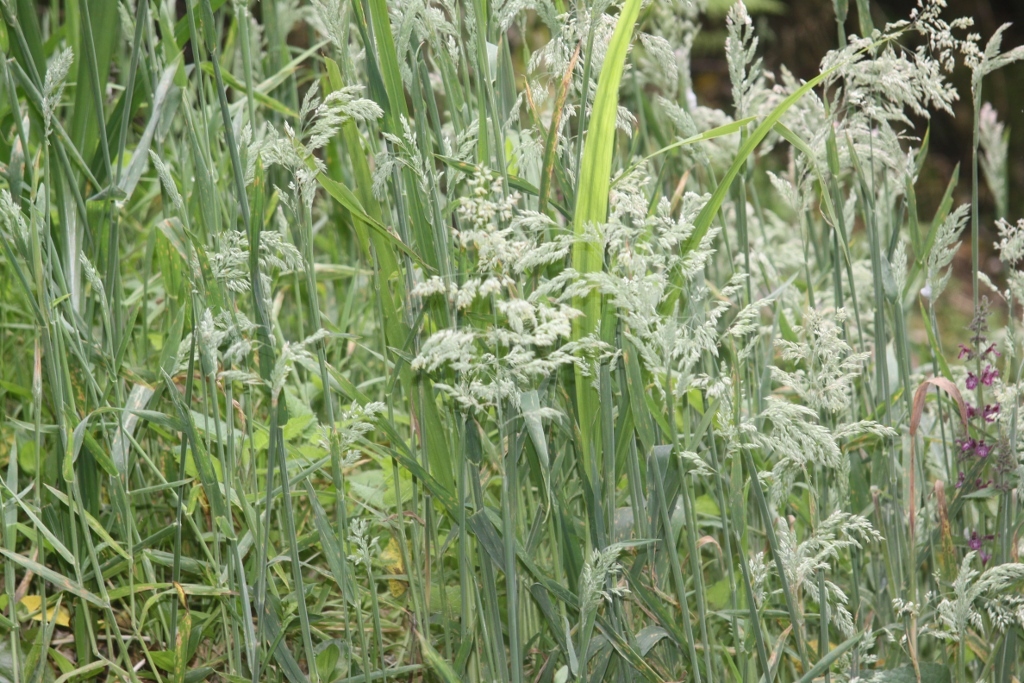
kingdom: Plantae
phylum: Tracheophyta
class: Liliopsida
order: Poales
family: Poaceae
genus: Holcus
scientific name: Holcus lanatus
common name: Yorkshire-fog
